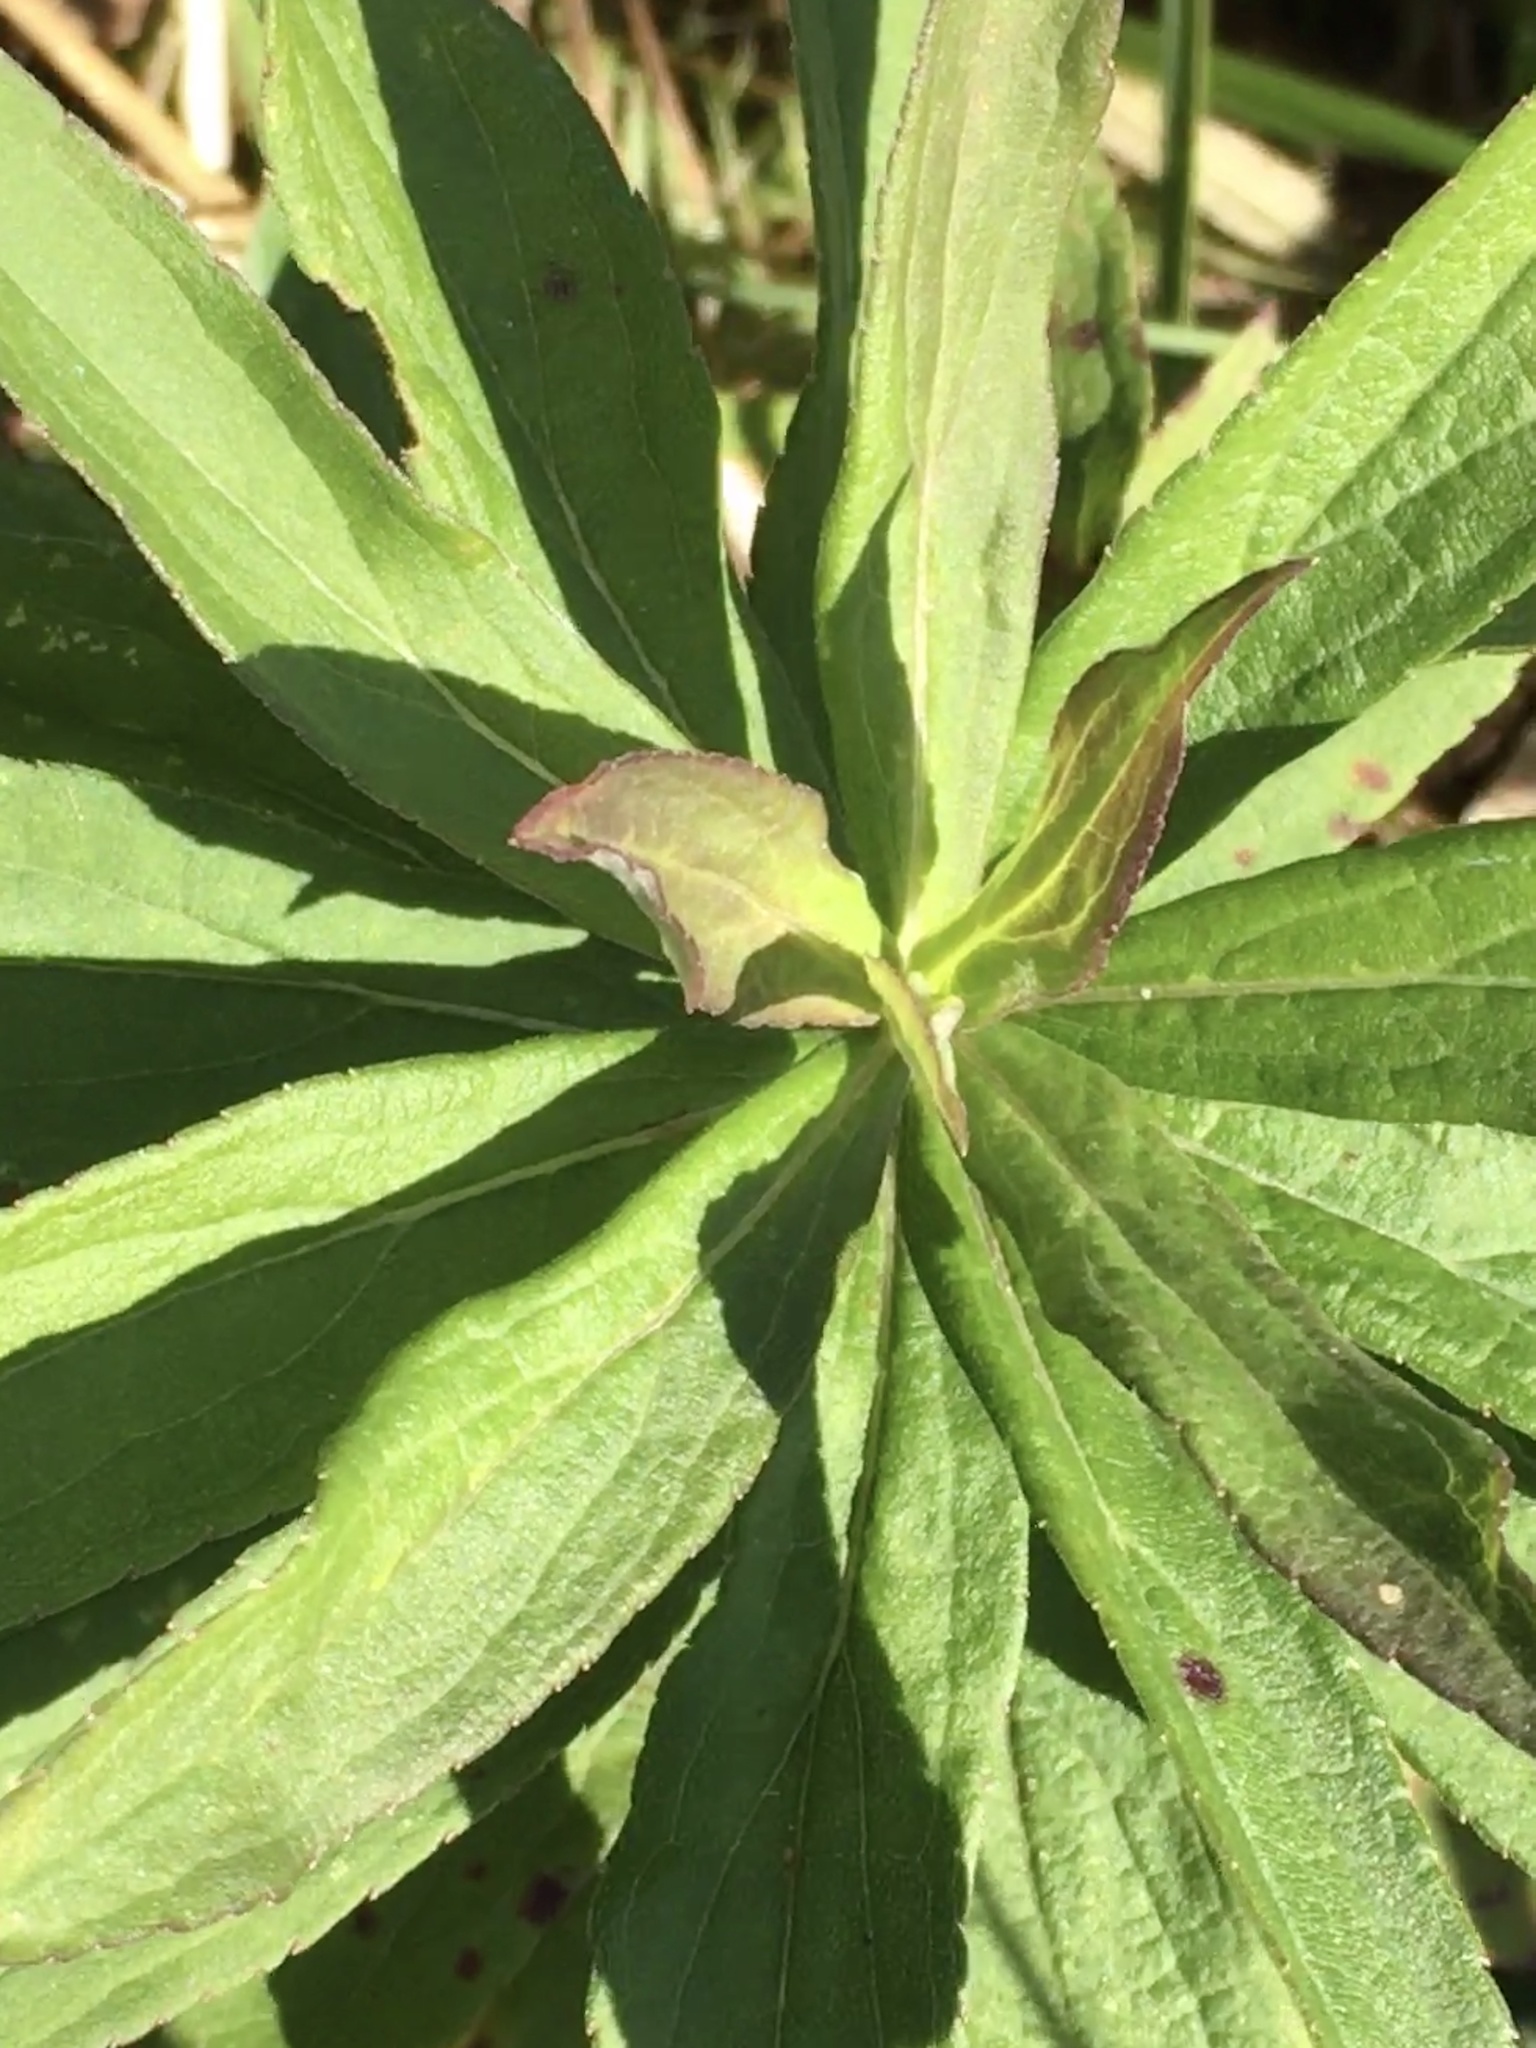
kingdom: Plantae
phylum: Tracheophyta
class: Magnoliopsida
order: Asterales
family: Asteraceae
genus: Solidago
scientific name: Solidago altissima
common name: Late goldenrod
